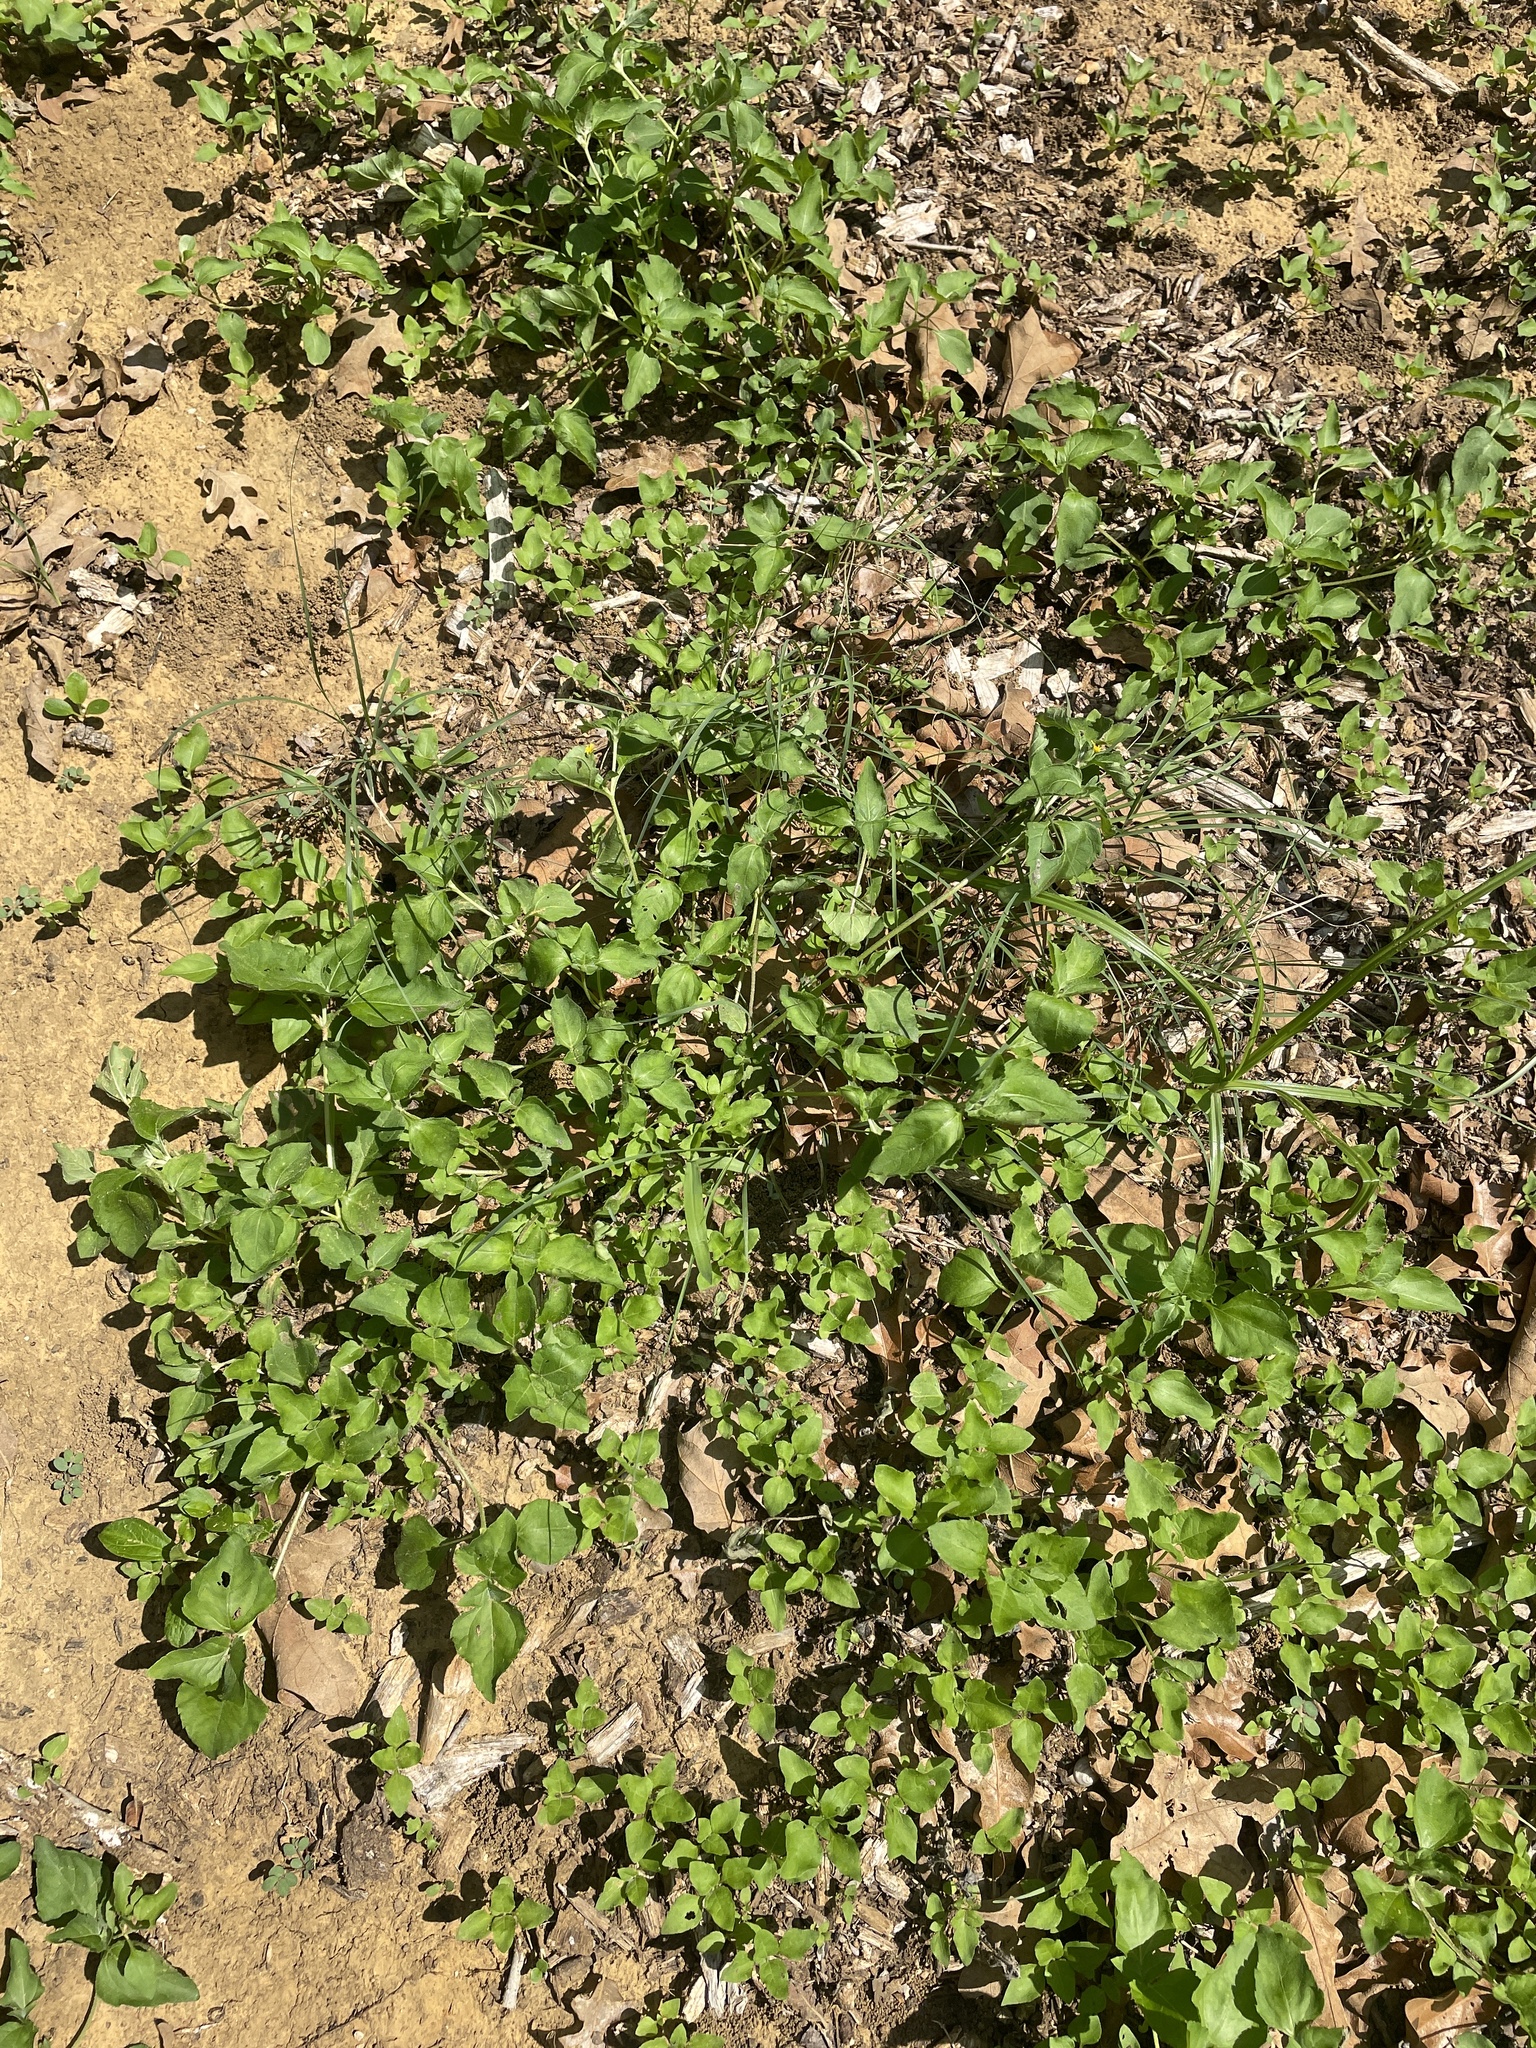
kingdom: Plantae
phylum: Tracheophyta
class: Magnoliopsida
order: Asterales
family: Asteraceae
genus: Calyptocarpus
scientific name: Calyptocarpus vialis
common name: Straggler daisy
